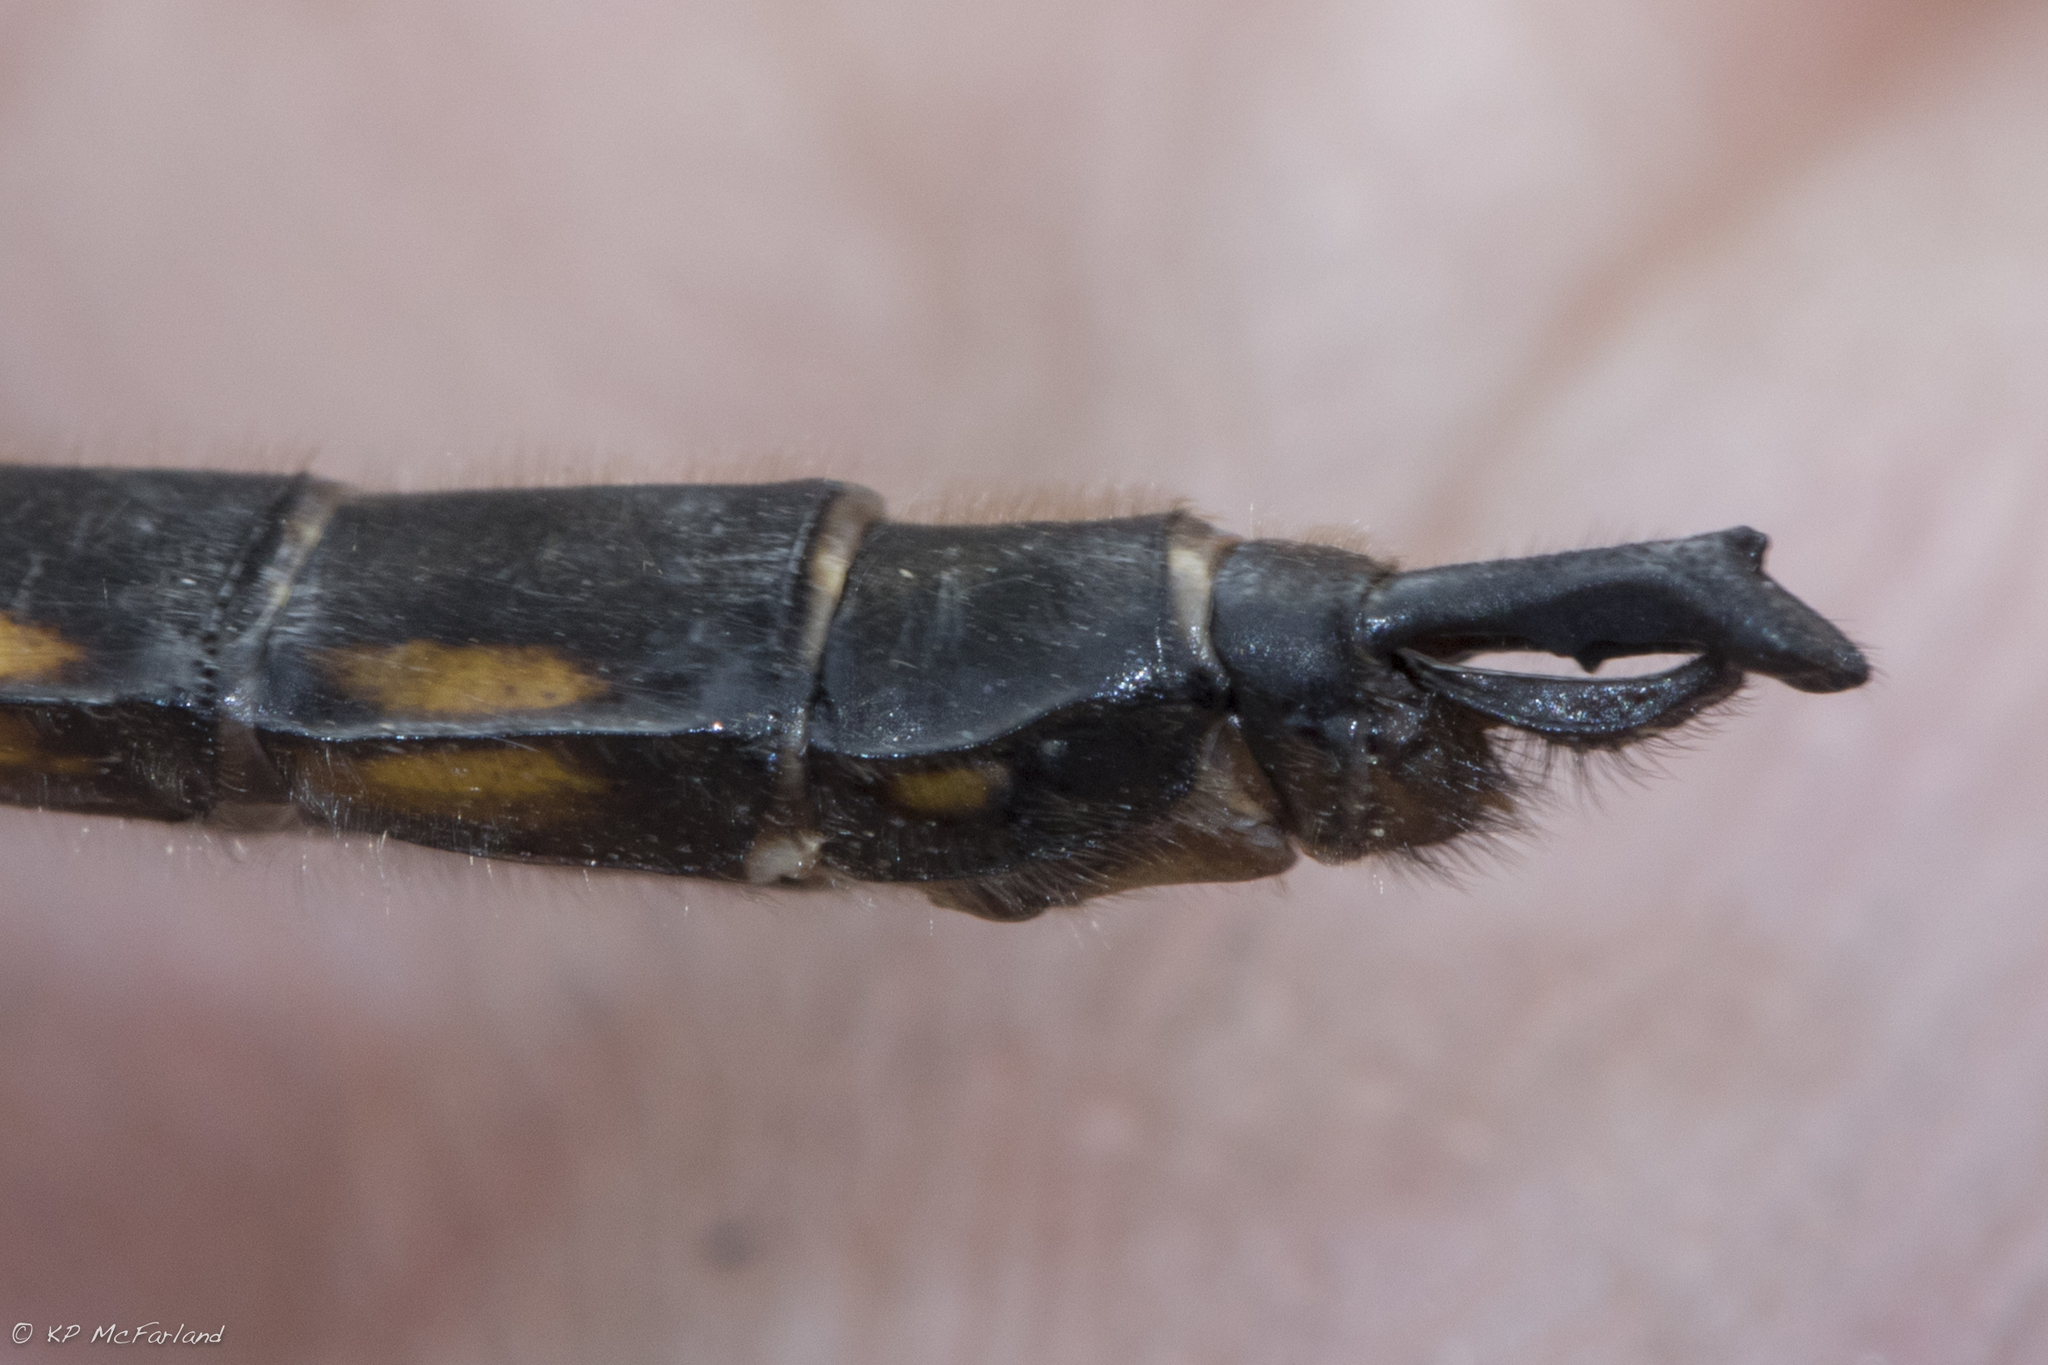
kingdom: Animalia
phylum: Arthropoda
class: Insecta
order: Odonata
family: Corduliidae
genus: Epitheca
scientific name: Epitheca canis
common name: Beaverpond baskettail
